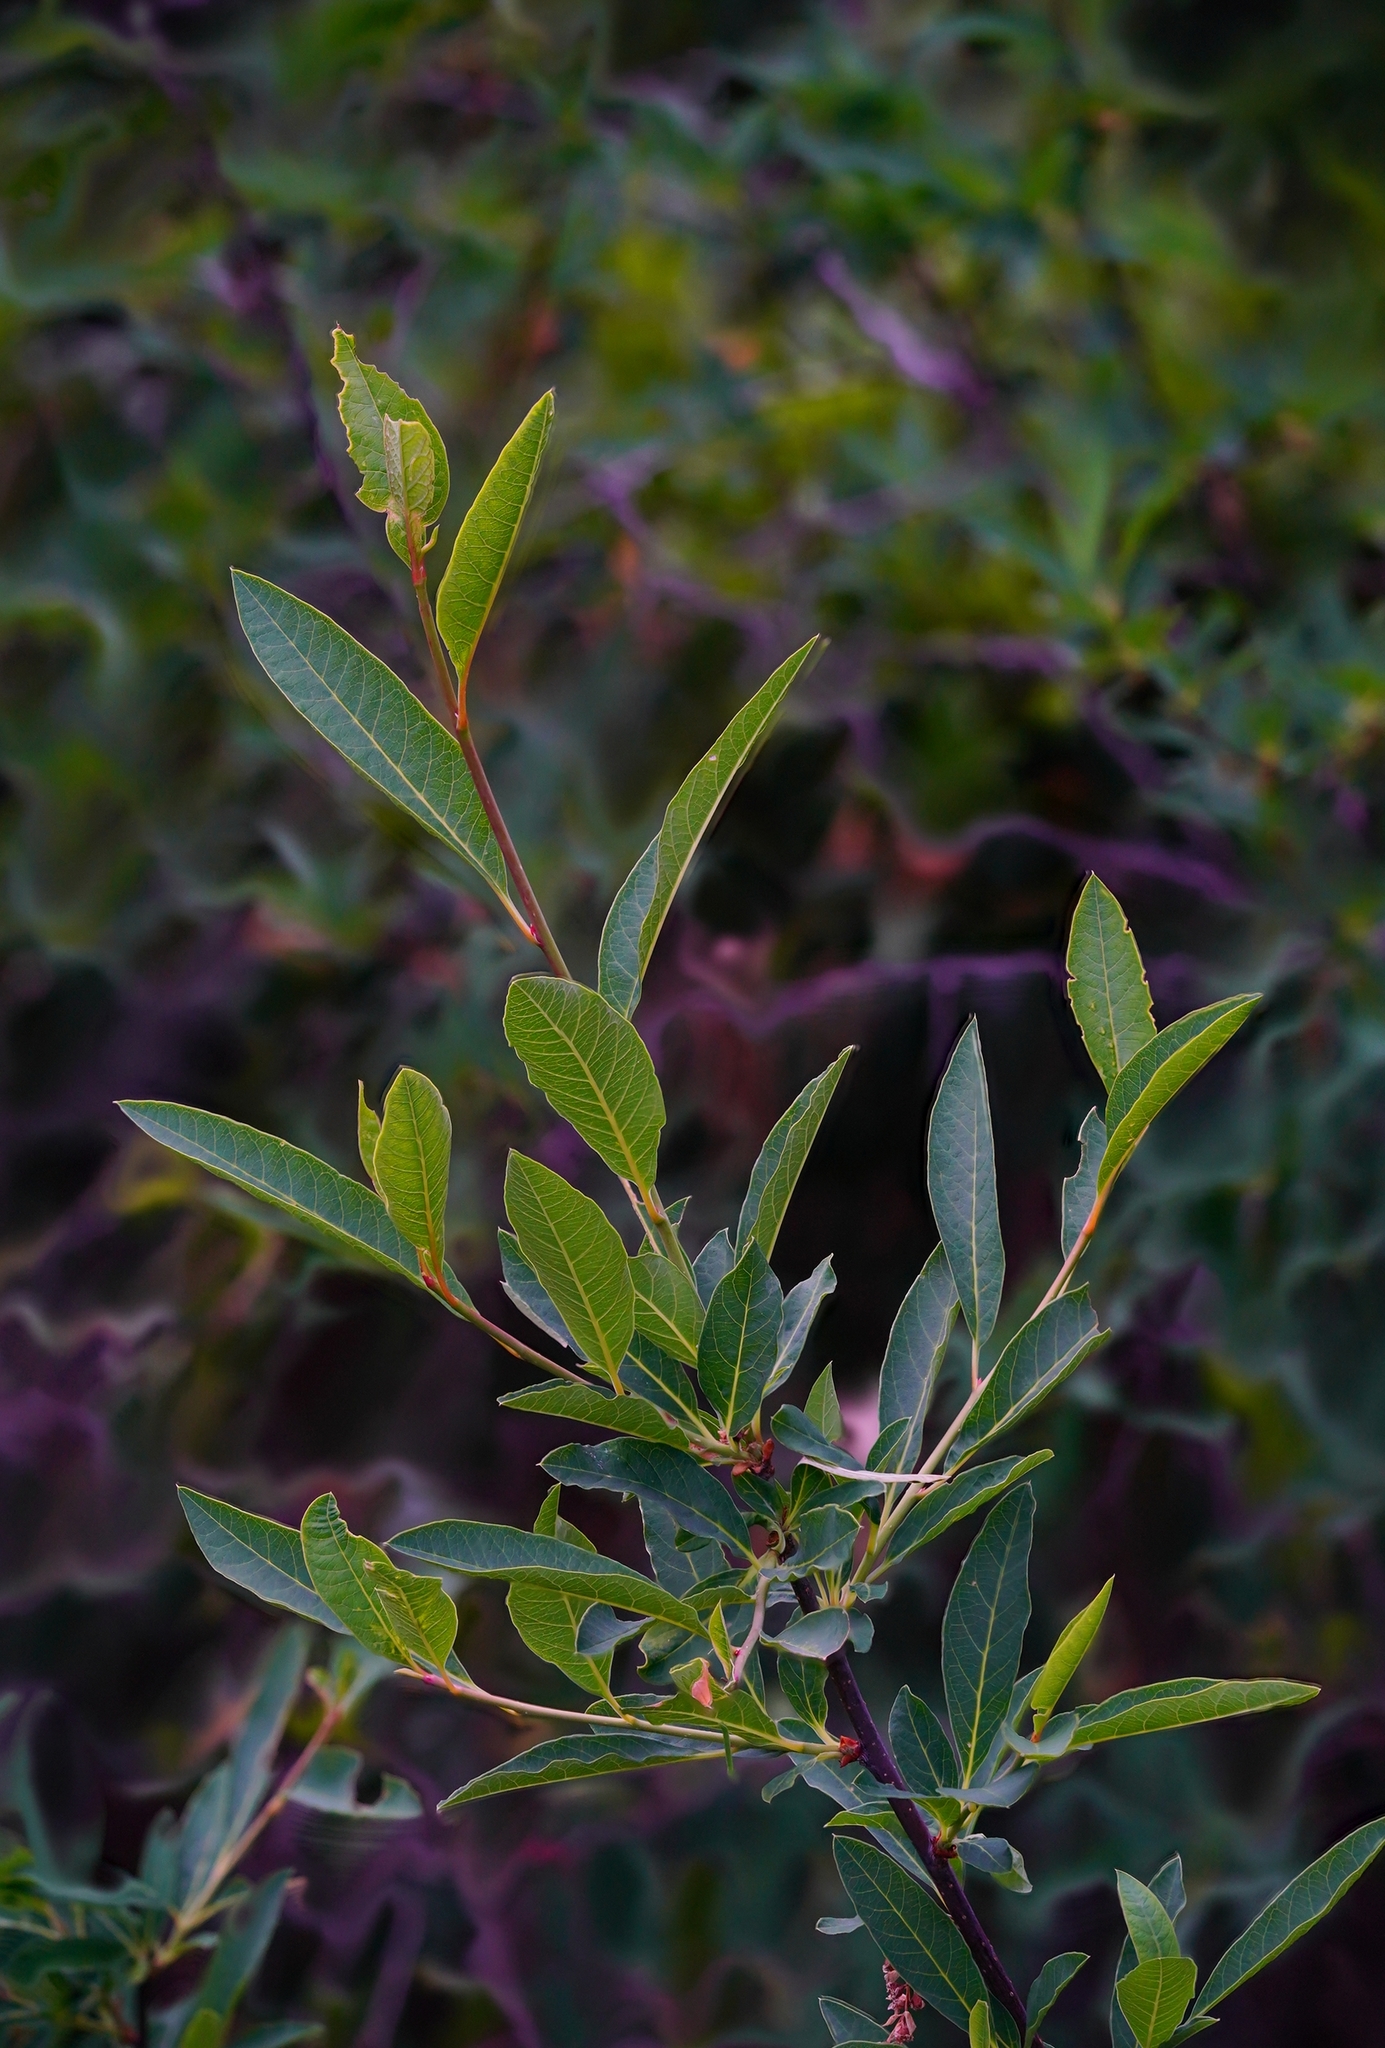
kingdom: Plantae
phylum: Tracheophyta
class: Magnoliopsida
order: Rosales
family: Rosaceae
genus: Oemleria
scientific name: Oemleria cerasiformis
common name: Osoberry
